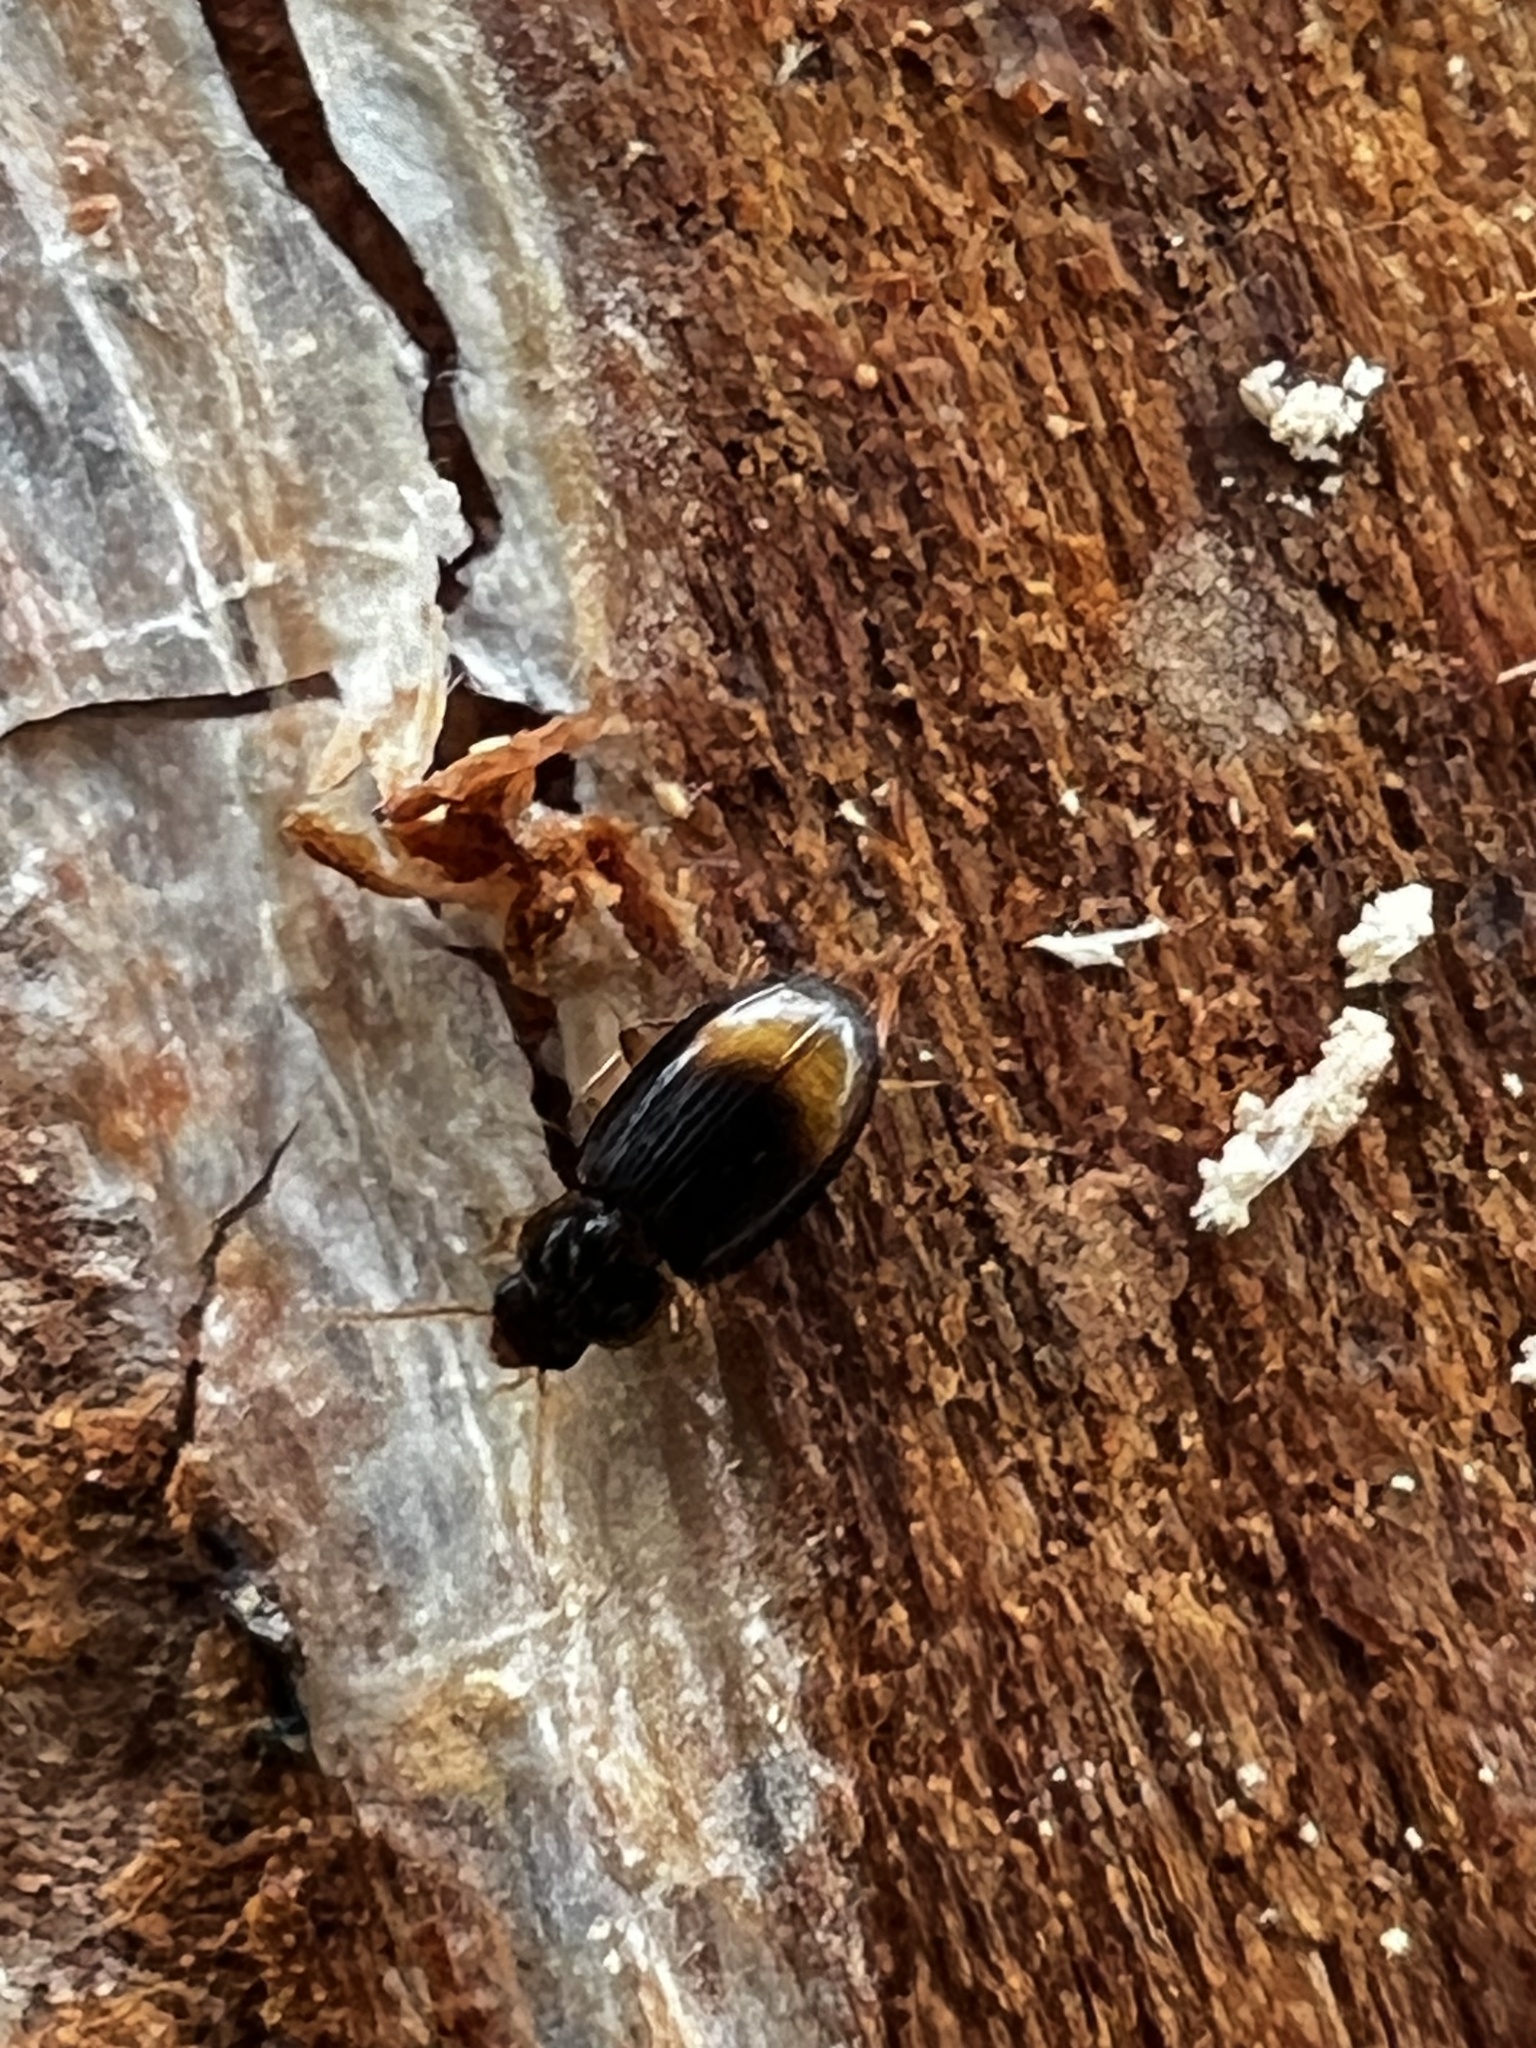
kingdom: Animalia
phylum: Arthropoda
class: Insecta
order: Coleoptera
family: Carabidae
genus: Mioptachys
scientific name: Mioptachys flavicauda
